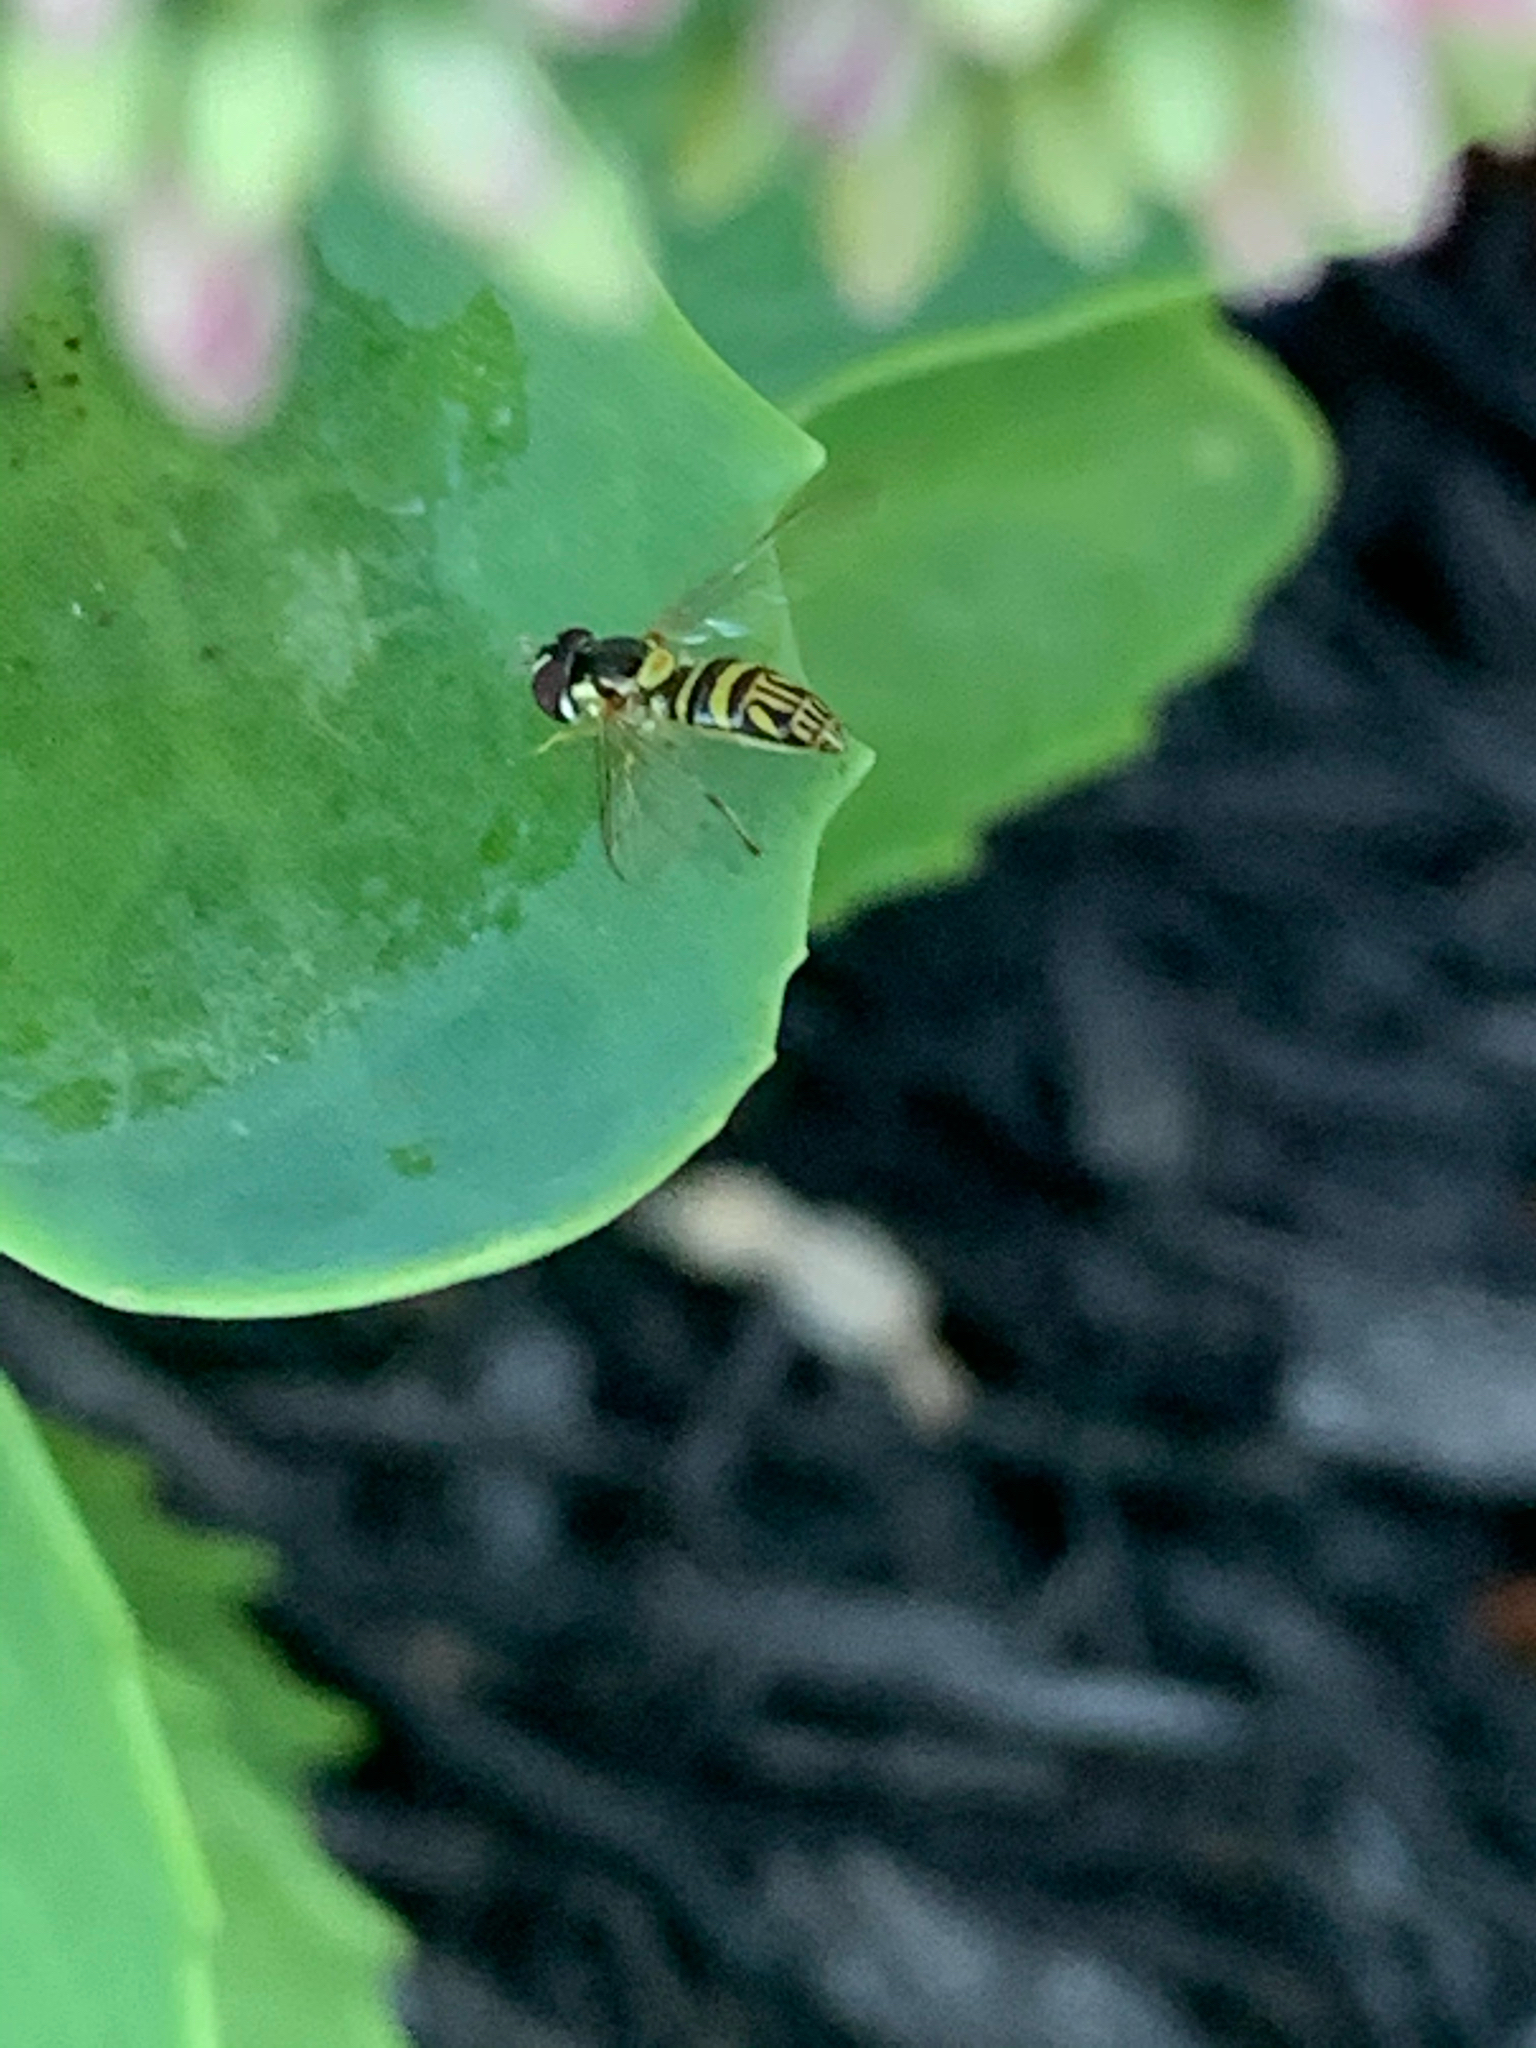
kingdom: Animalia
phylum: Arthropoda
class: Insecta
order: Diptera
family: Syrphidae
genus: Allograpta
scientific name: Allograpta obliqua
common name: Common oblique syrphid
